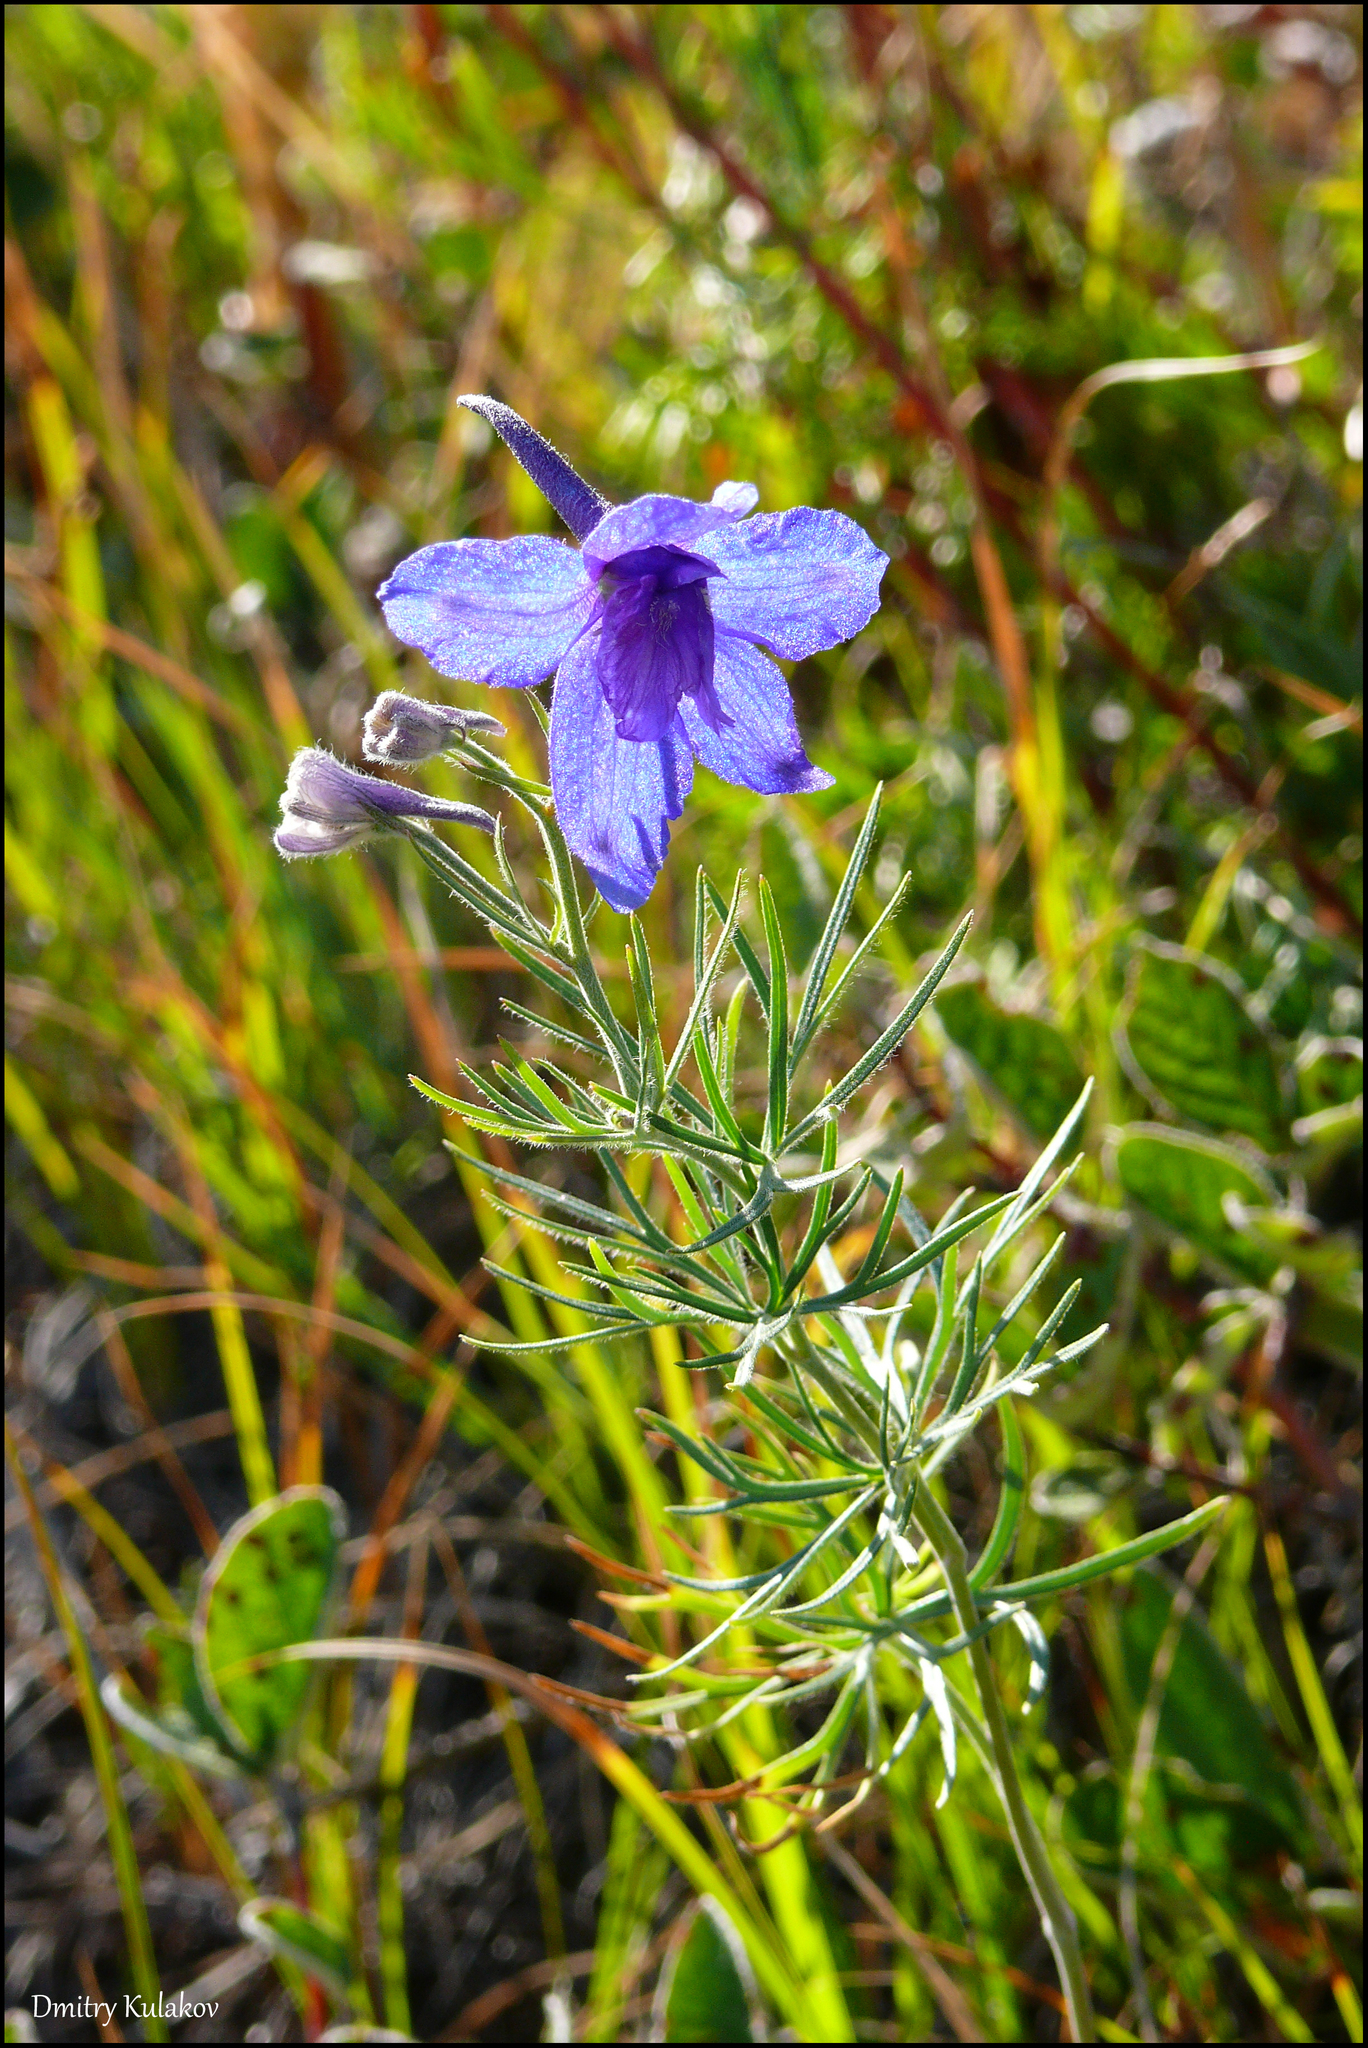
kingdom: Plantae
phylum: Tracheophyta
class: Magnoliopsida
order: Ranunculales
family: Ranunculaceae
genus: Delphinium
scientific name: Delphinium grandiflorum
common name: Siberian larkspur
